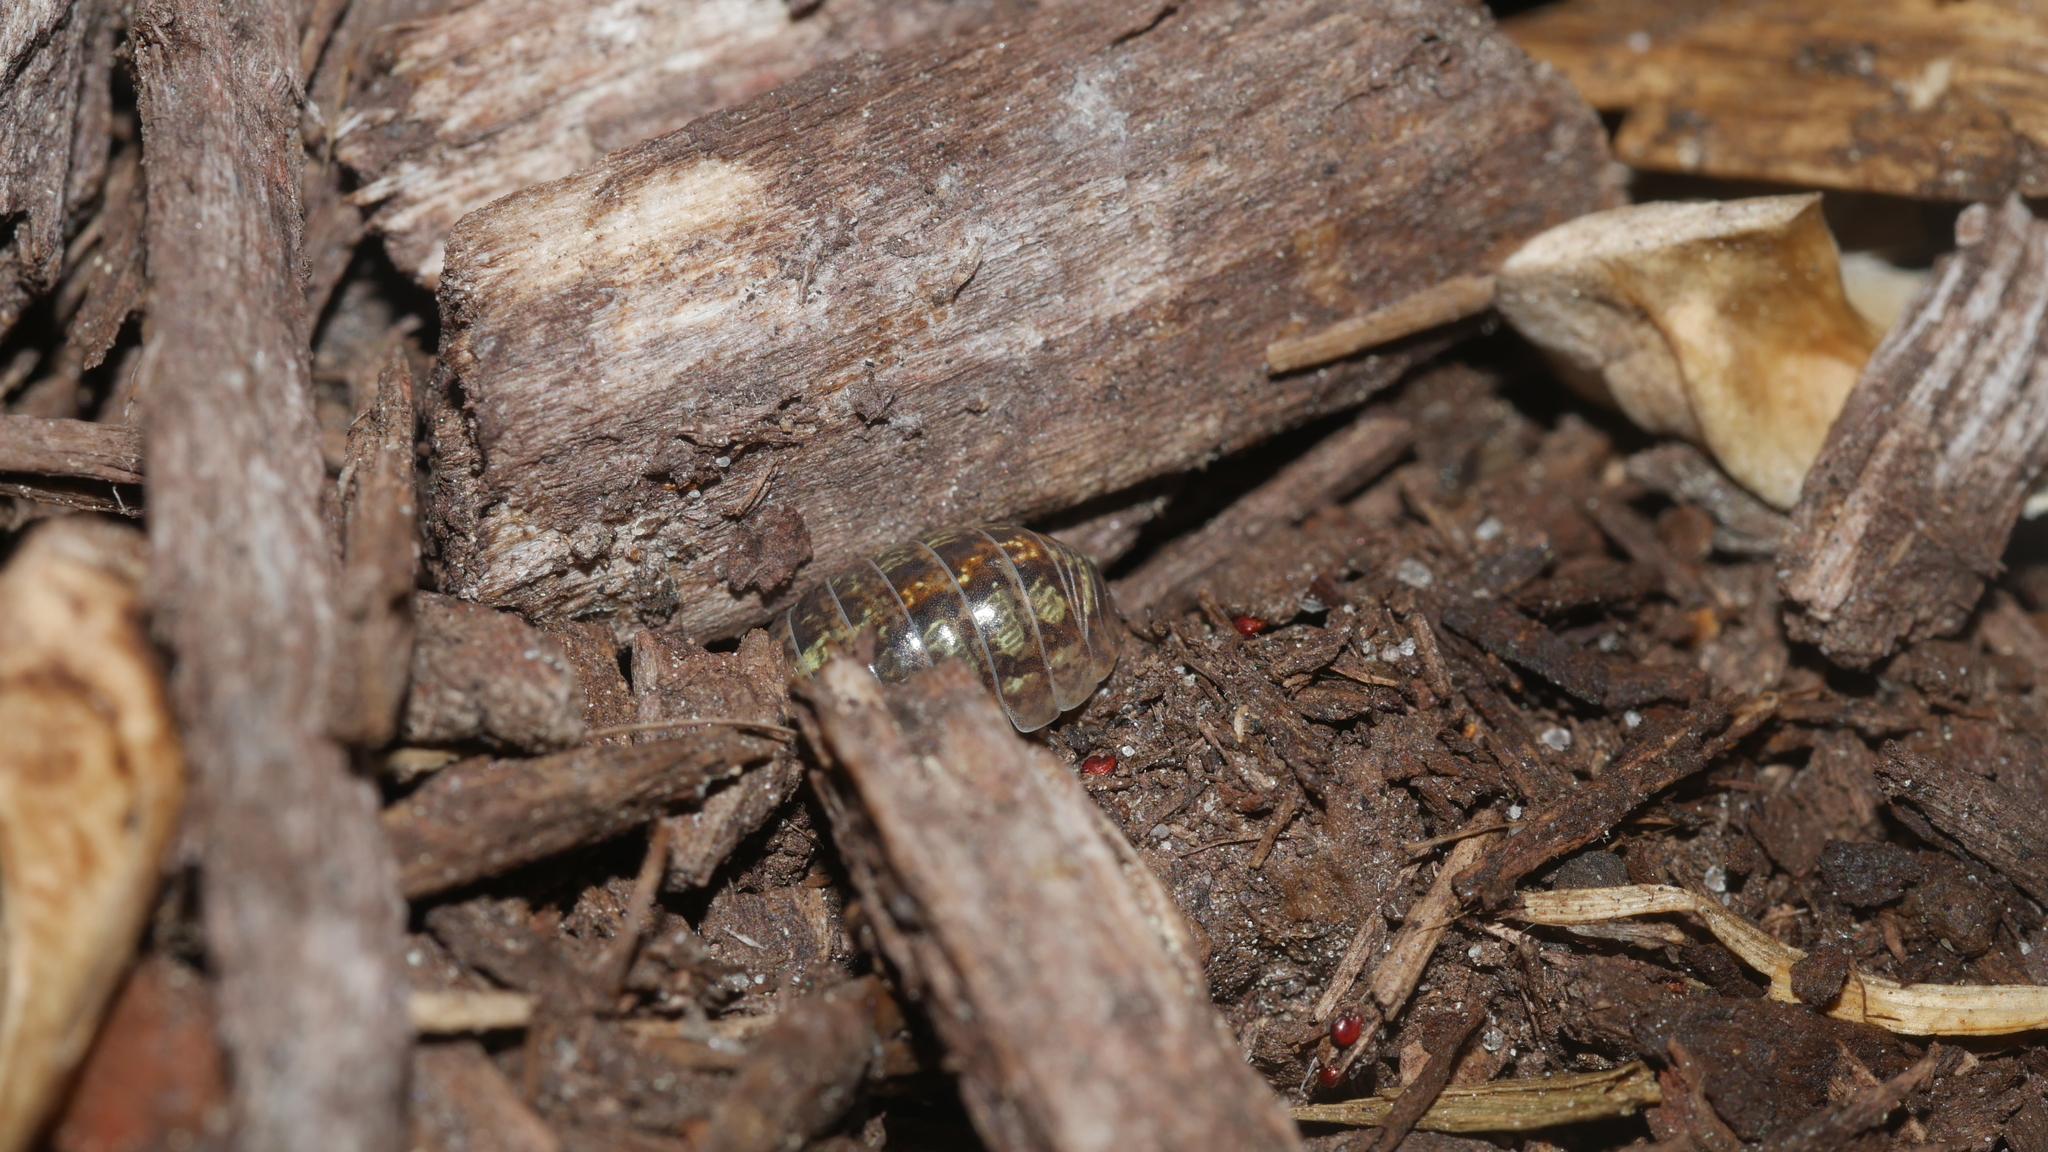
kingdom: Animalia
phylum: Arthropoda
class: Malacostraca
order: Isopoda
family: Armadillidiidae
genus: Armadillidium
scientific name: Armadillidium vulgare
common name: Common pill woodlouse
